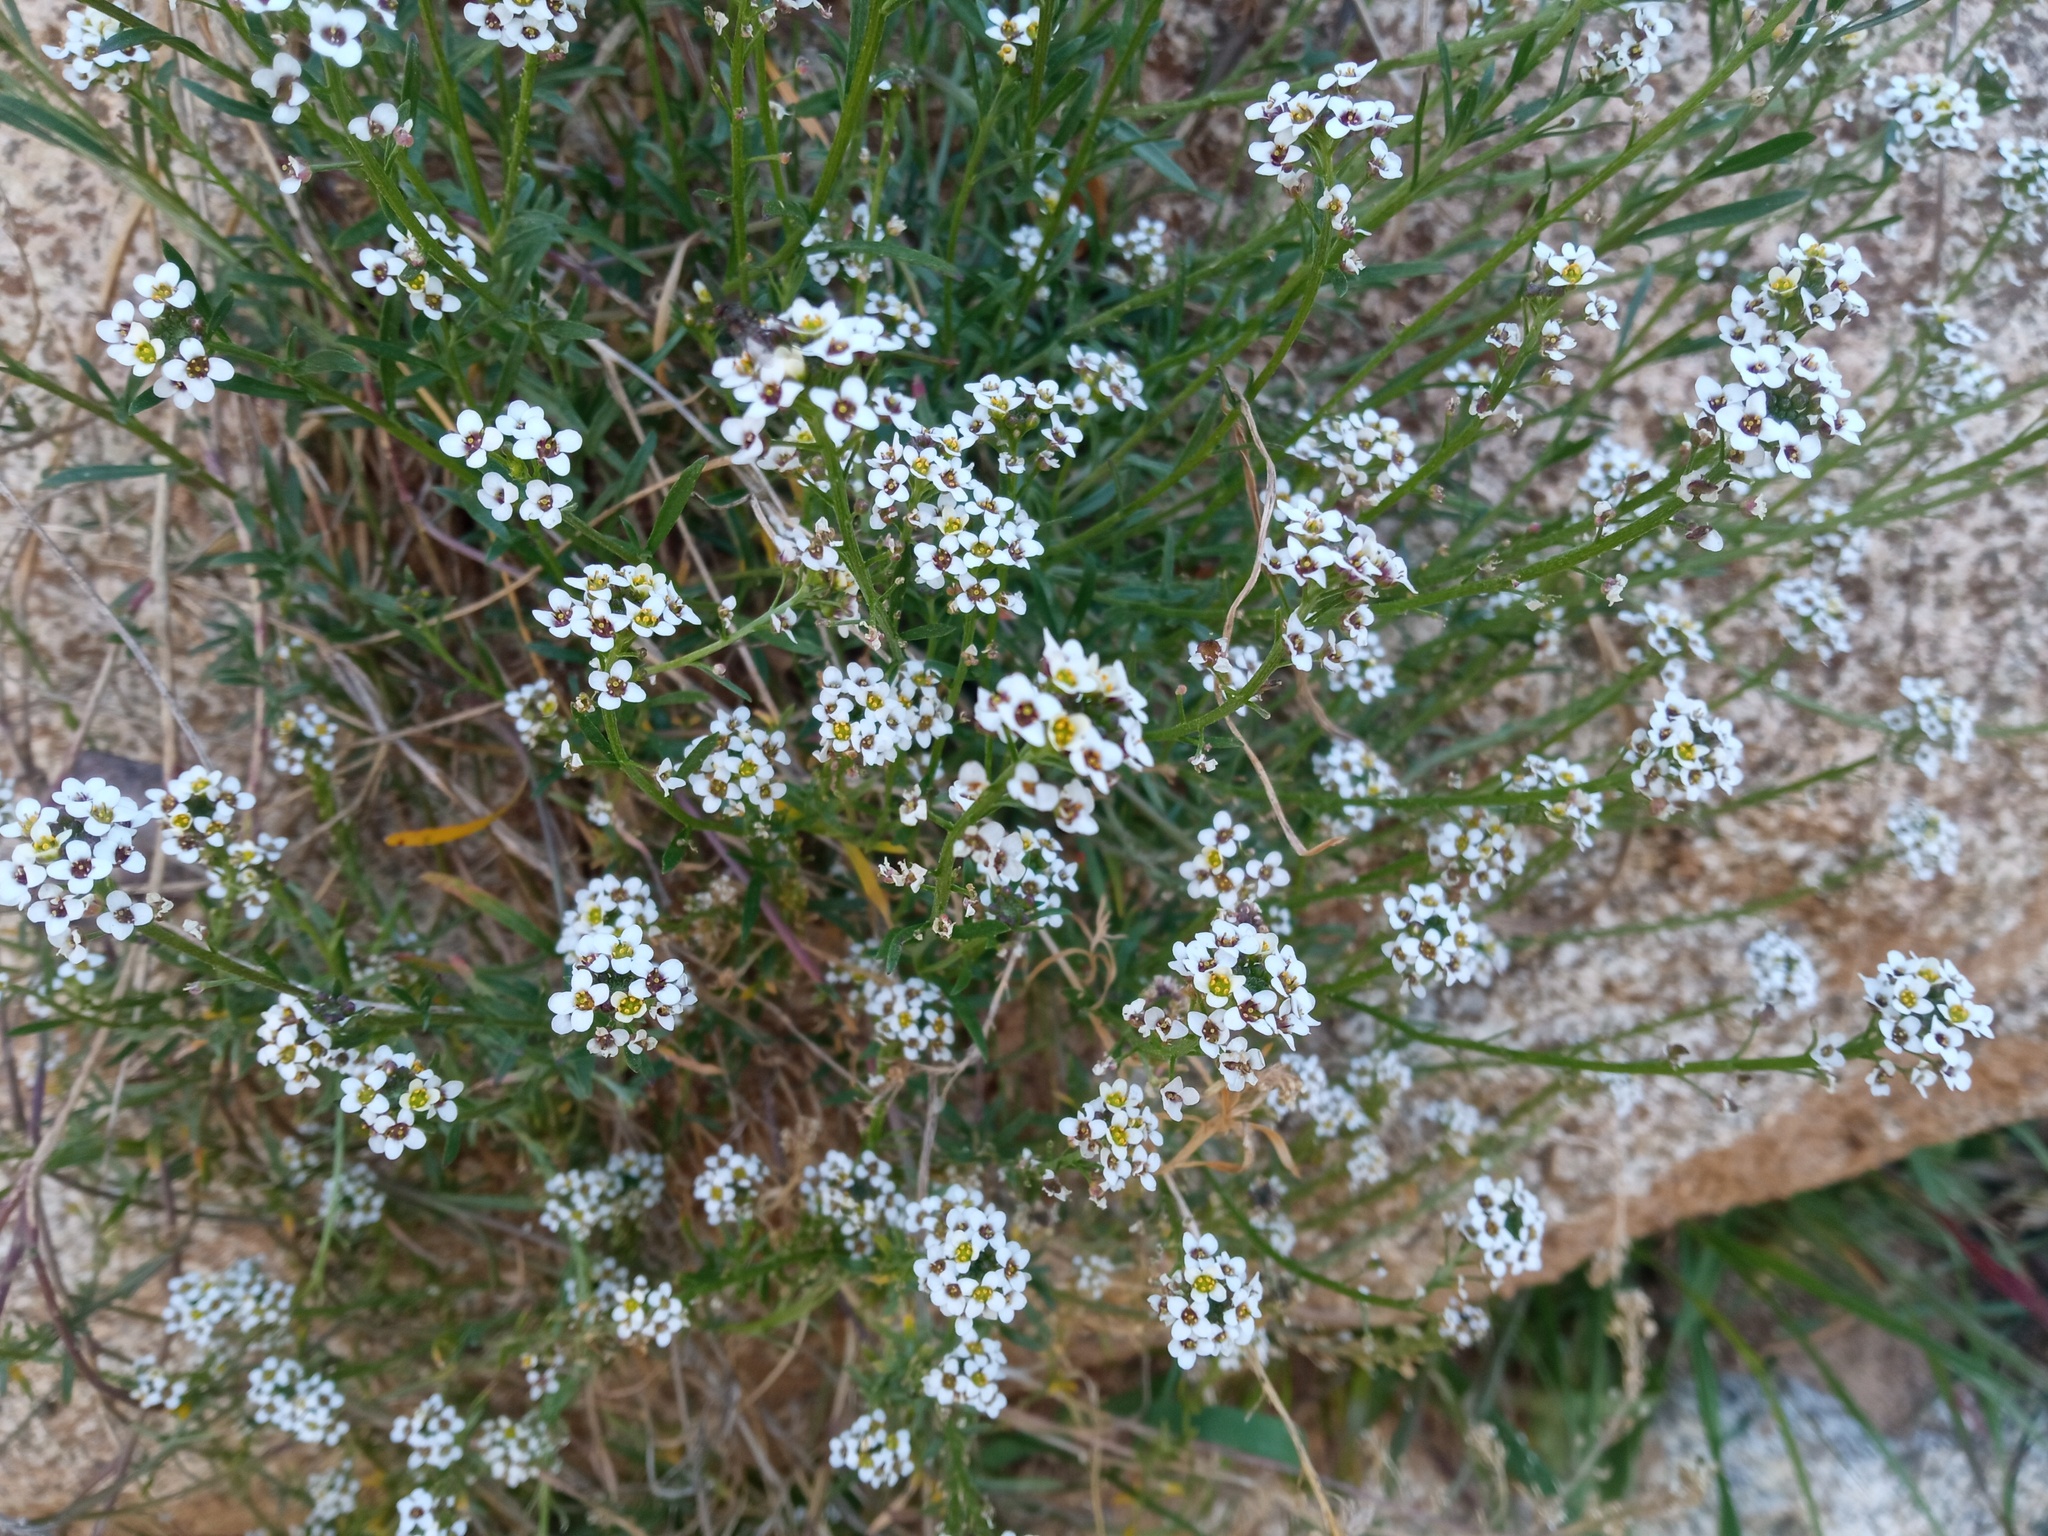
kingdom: Plantae
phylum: Tracheophyta
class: Magnoliopsida
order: Brassicales
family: Brassicaceae
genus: Lobularia
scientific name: Lobularia maritima
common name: Sweet alison
